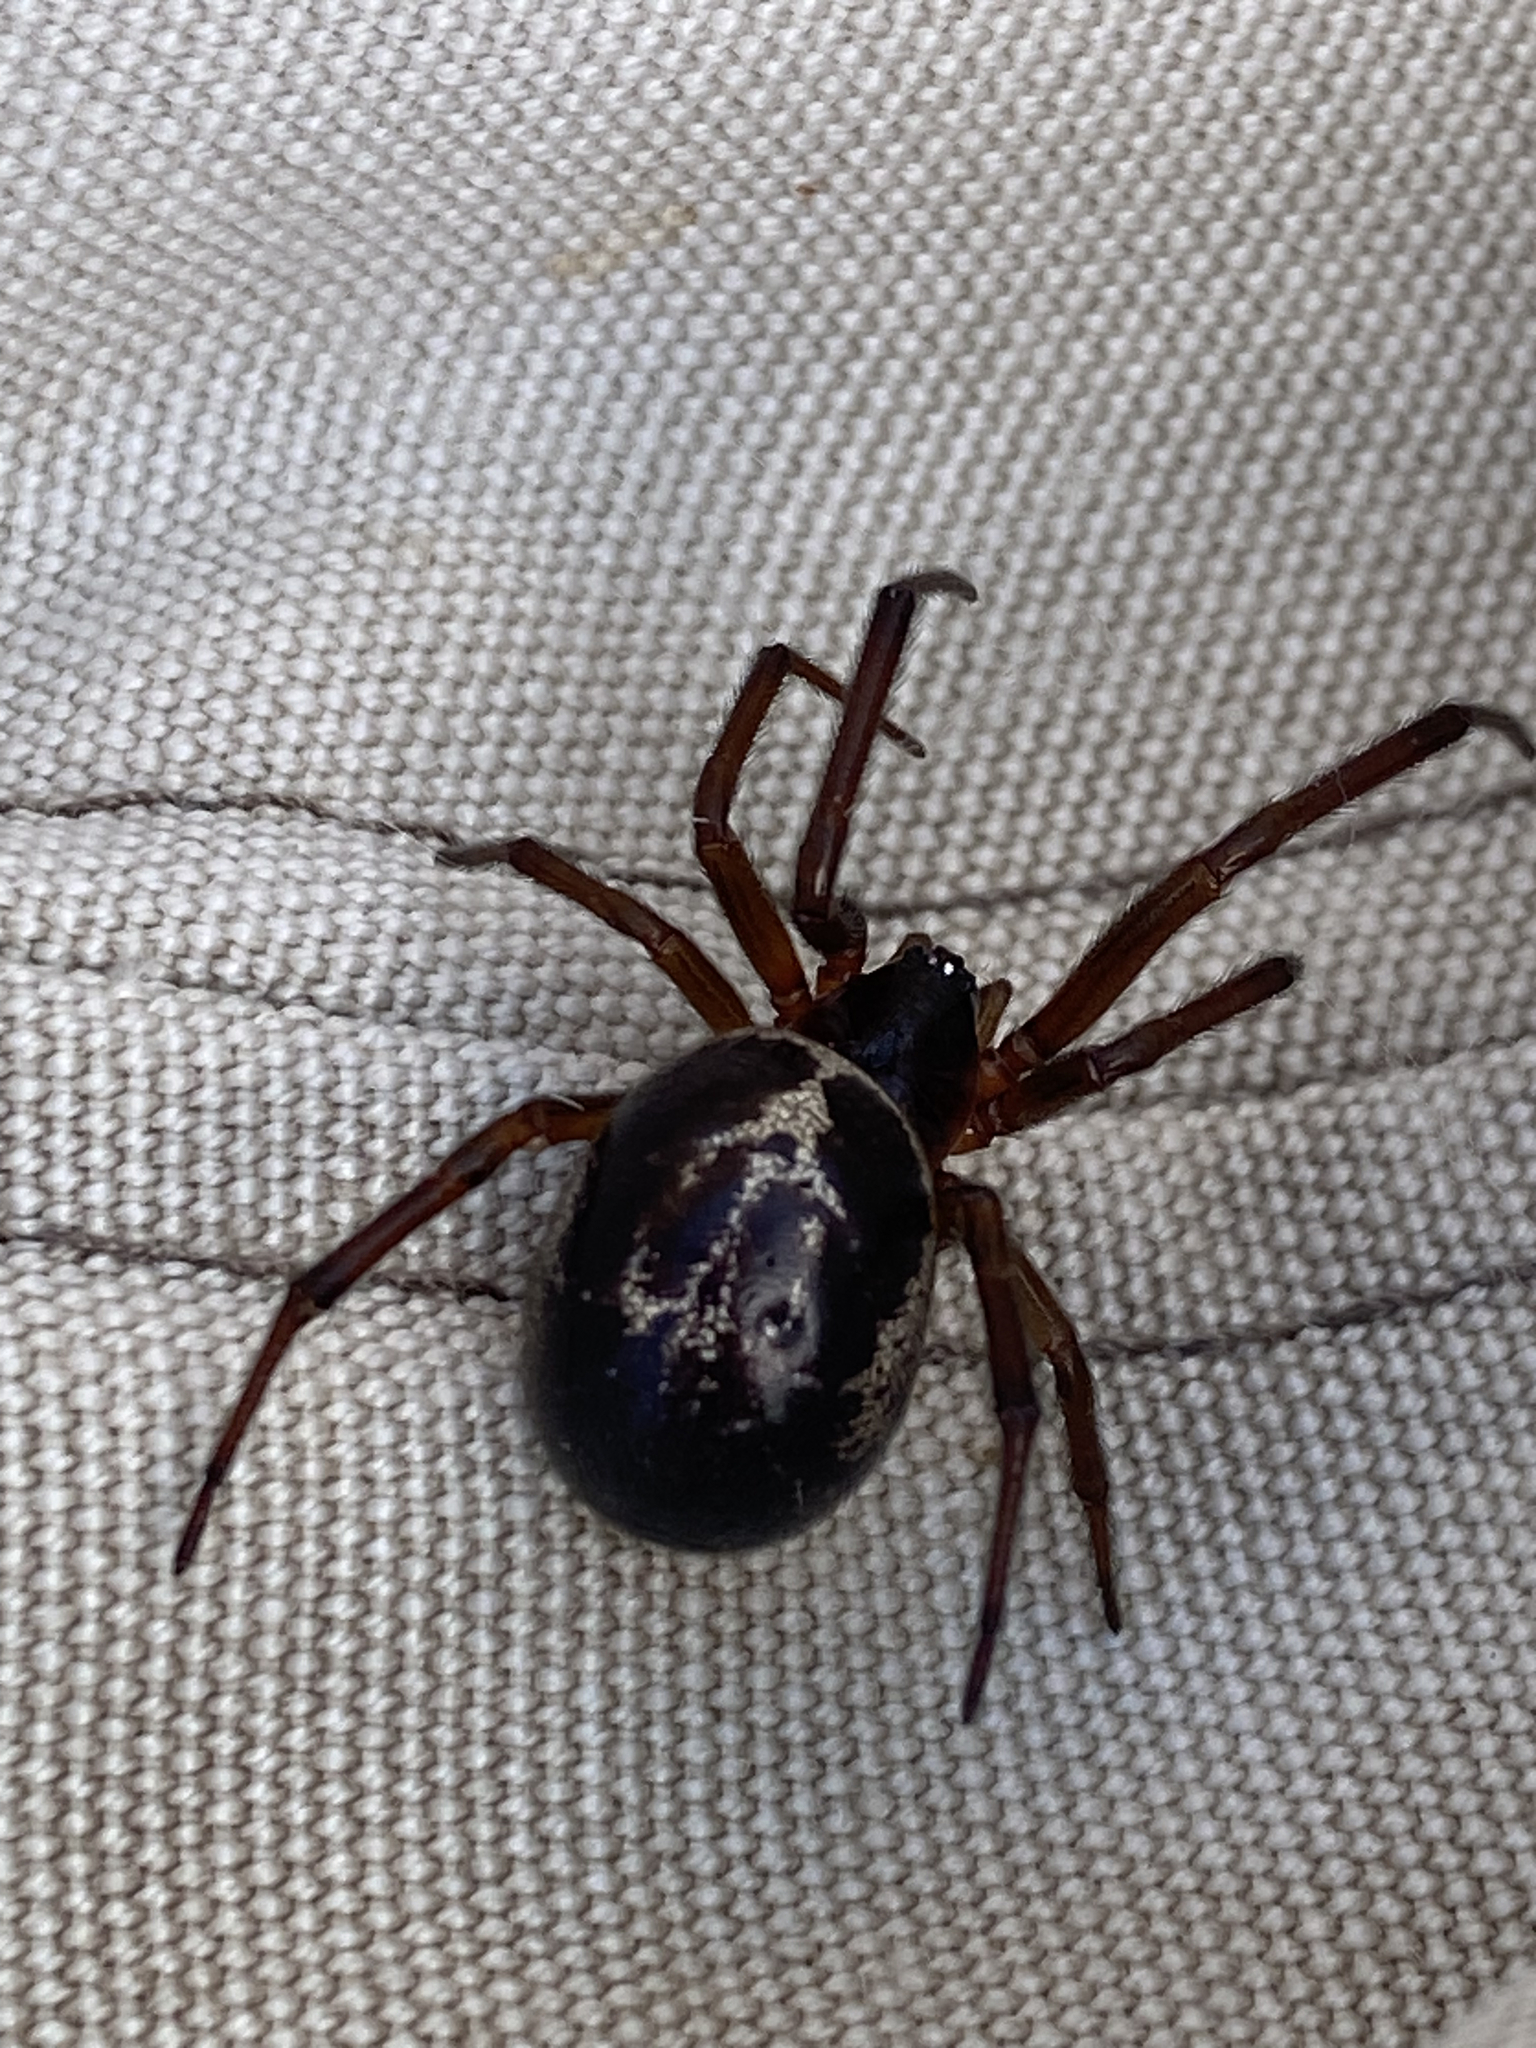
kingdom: Animalia
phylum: Arthropoda
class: Arachnida
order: Araneae
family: Theridiidae
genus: Steatoda
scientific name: Steatoda nobilis
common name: Cobweb weaver
